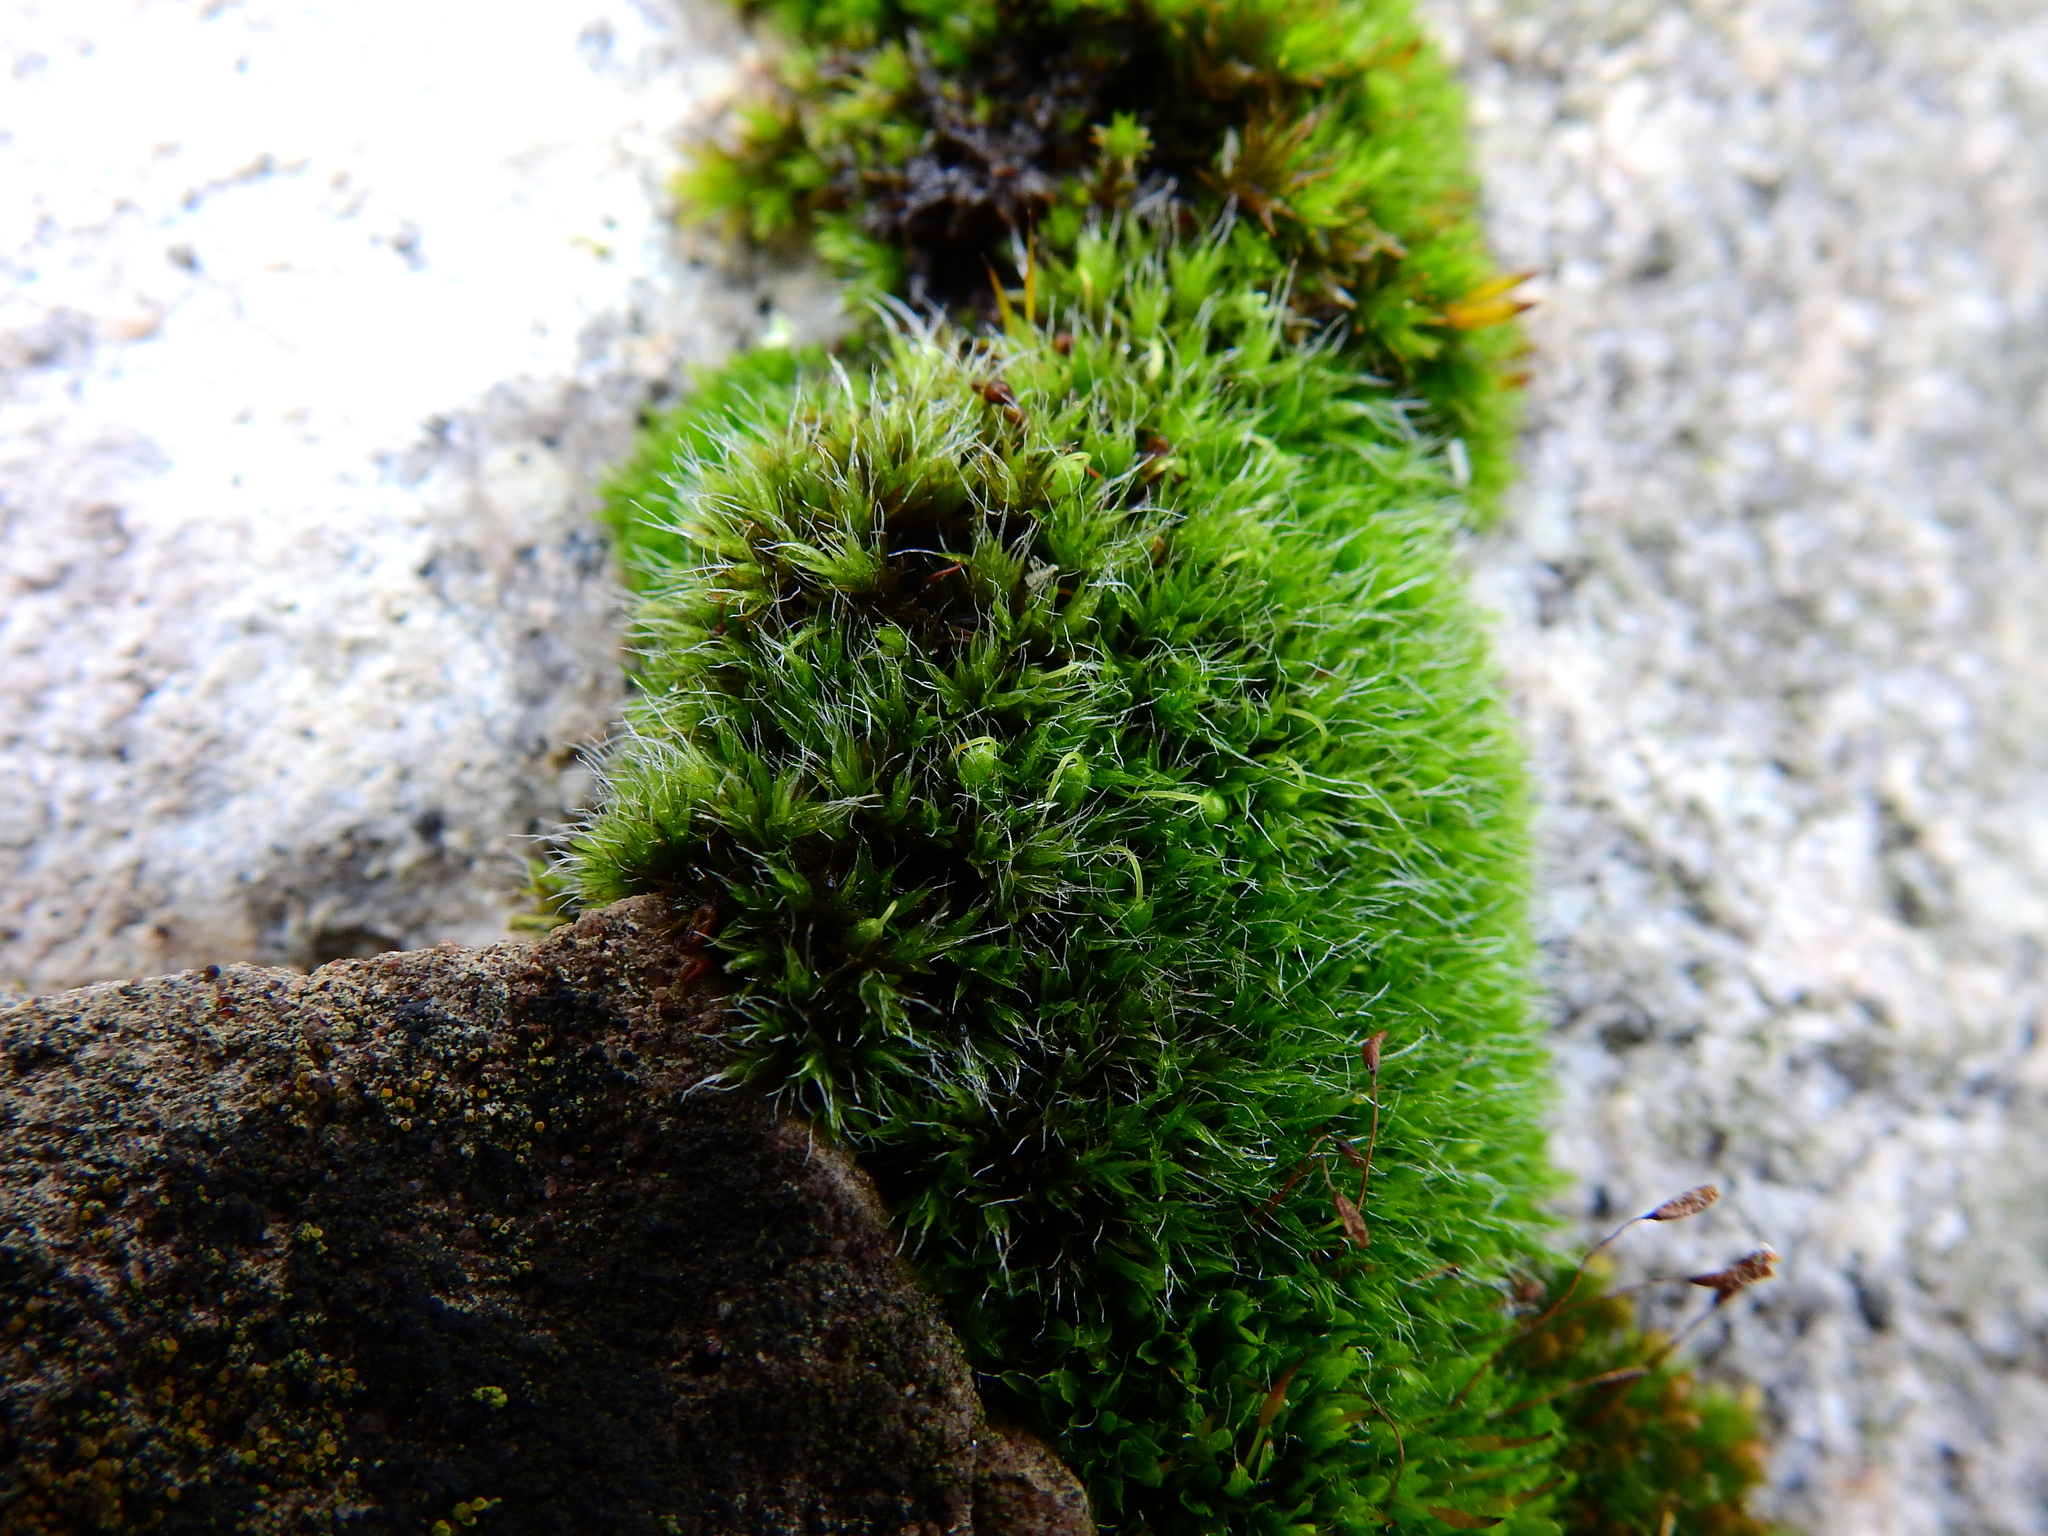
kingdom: Plantae
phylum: Bryophyta
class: Bryopsida
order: Grimmiales
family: Grimmiaceae
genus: Grimmia
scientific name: Grimmia pulvinata
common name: Grey-cushioned grimmia
